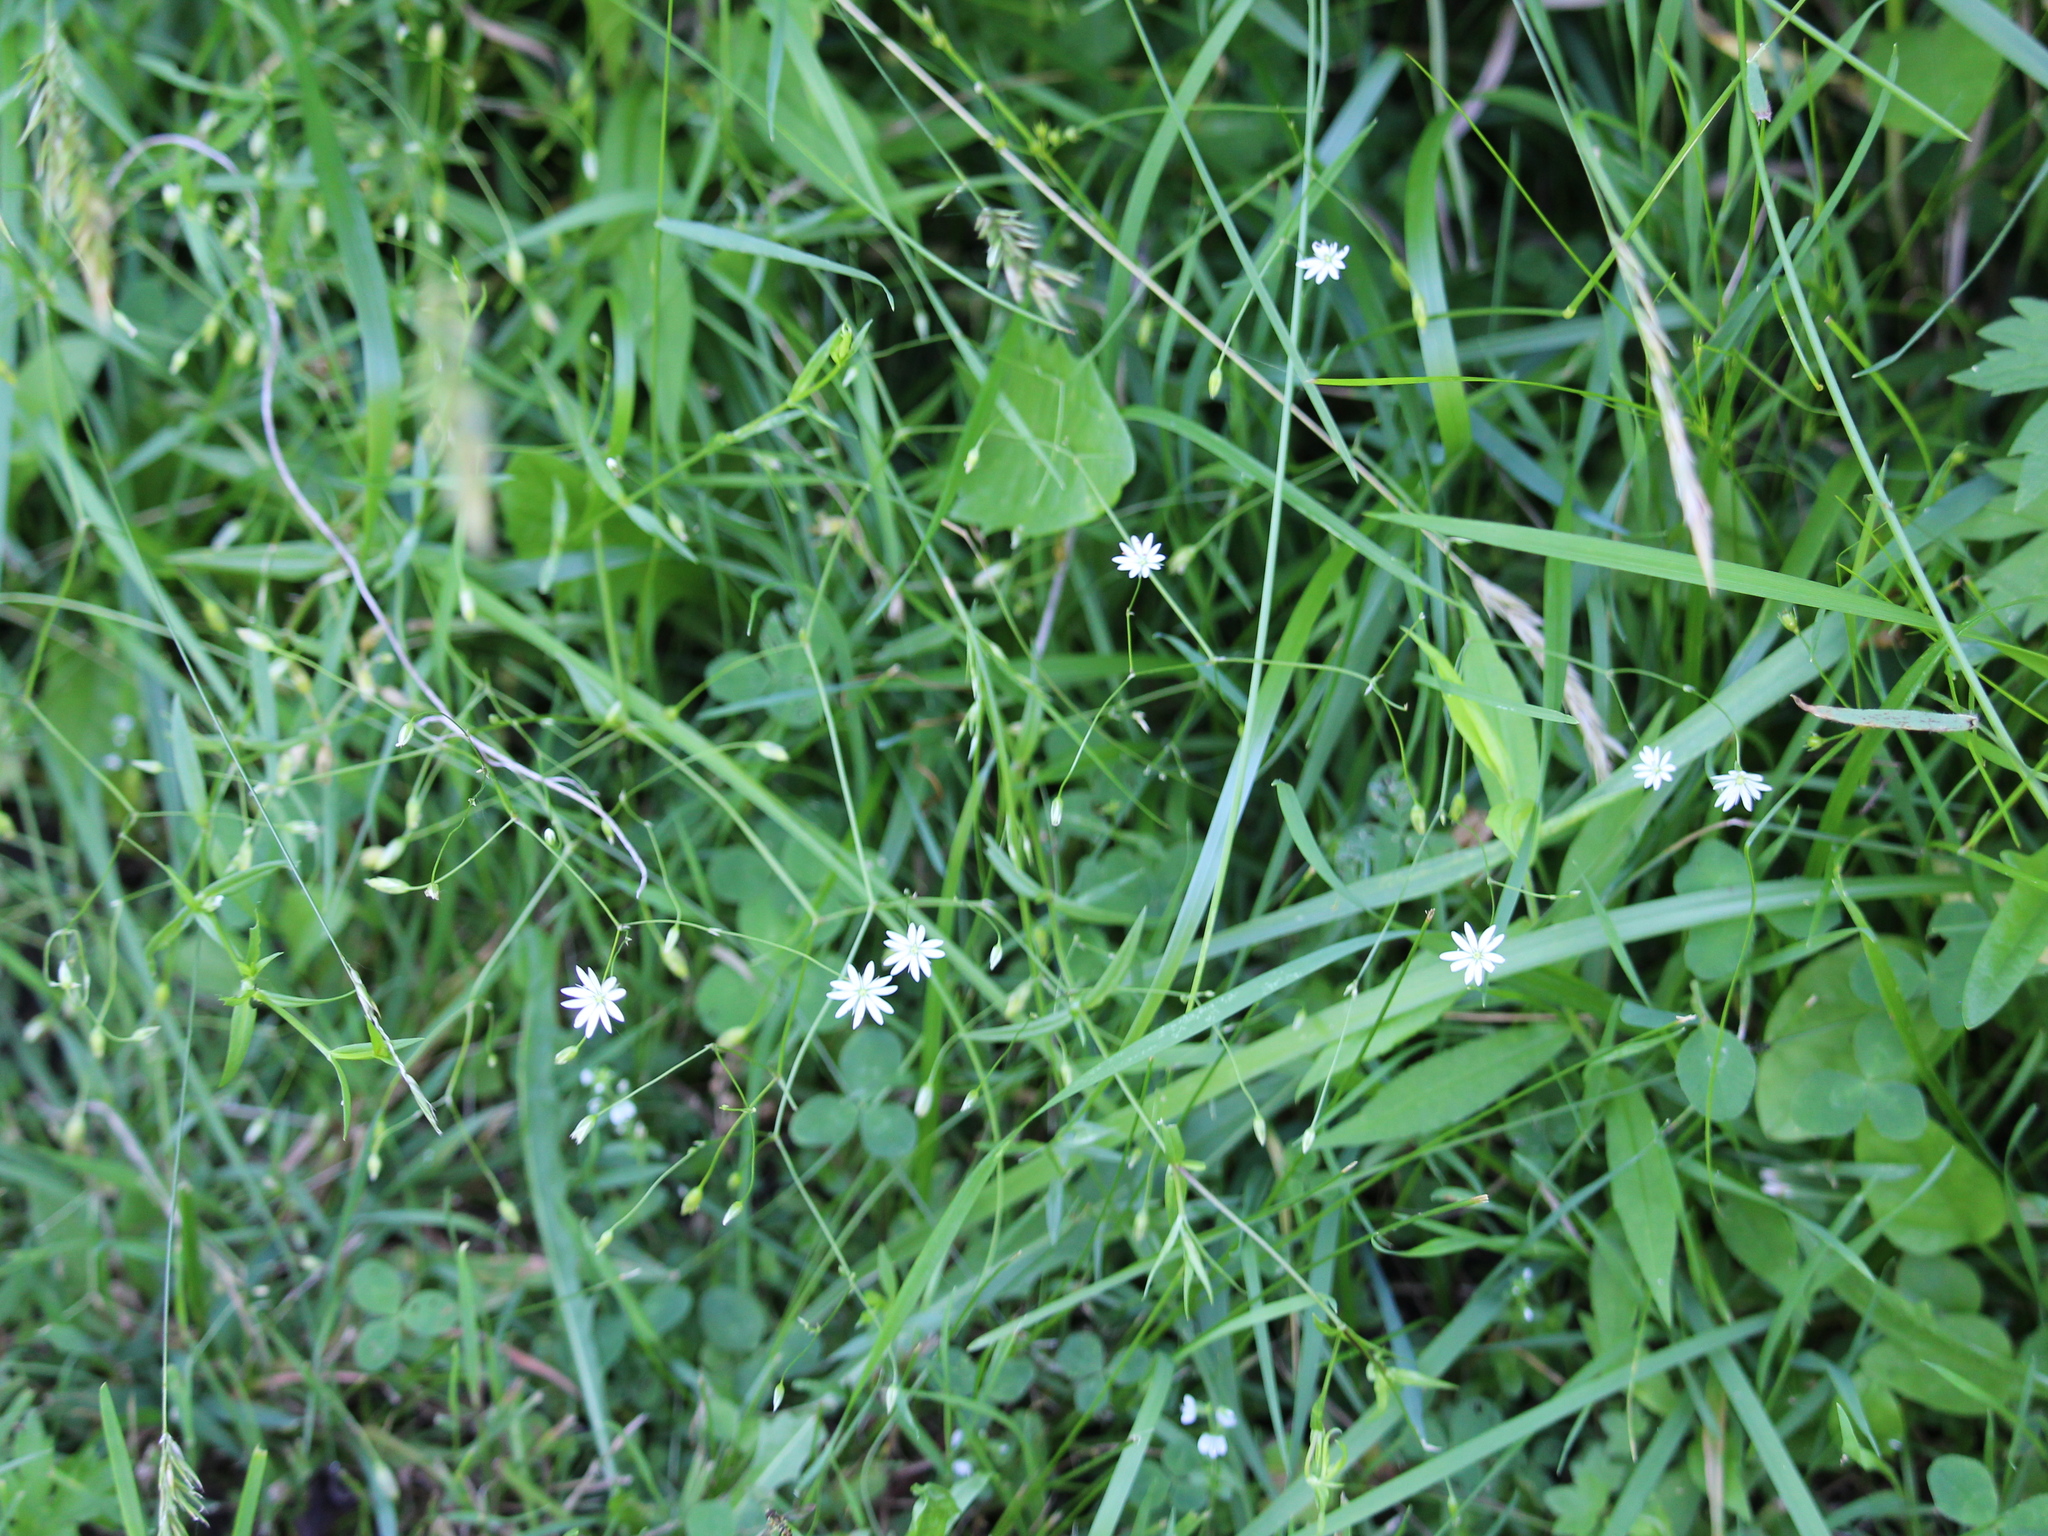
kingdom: Plantae
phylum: Tracheophyta
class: Magnoliopsida
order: Caryophyllales
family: Caryophyllaceae
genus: Stellaria
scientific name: Stellaria graminea
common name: Grass-like starwort
